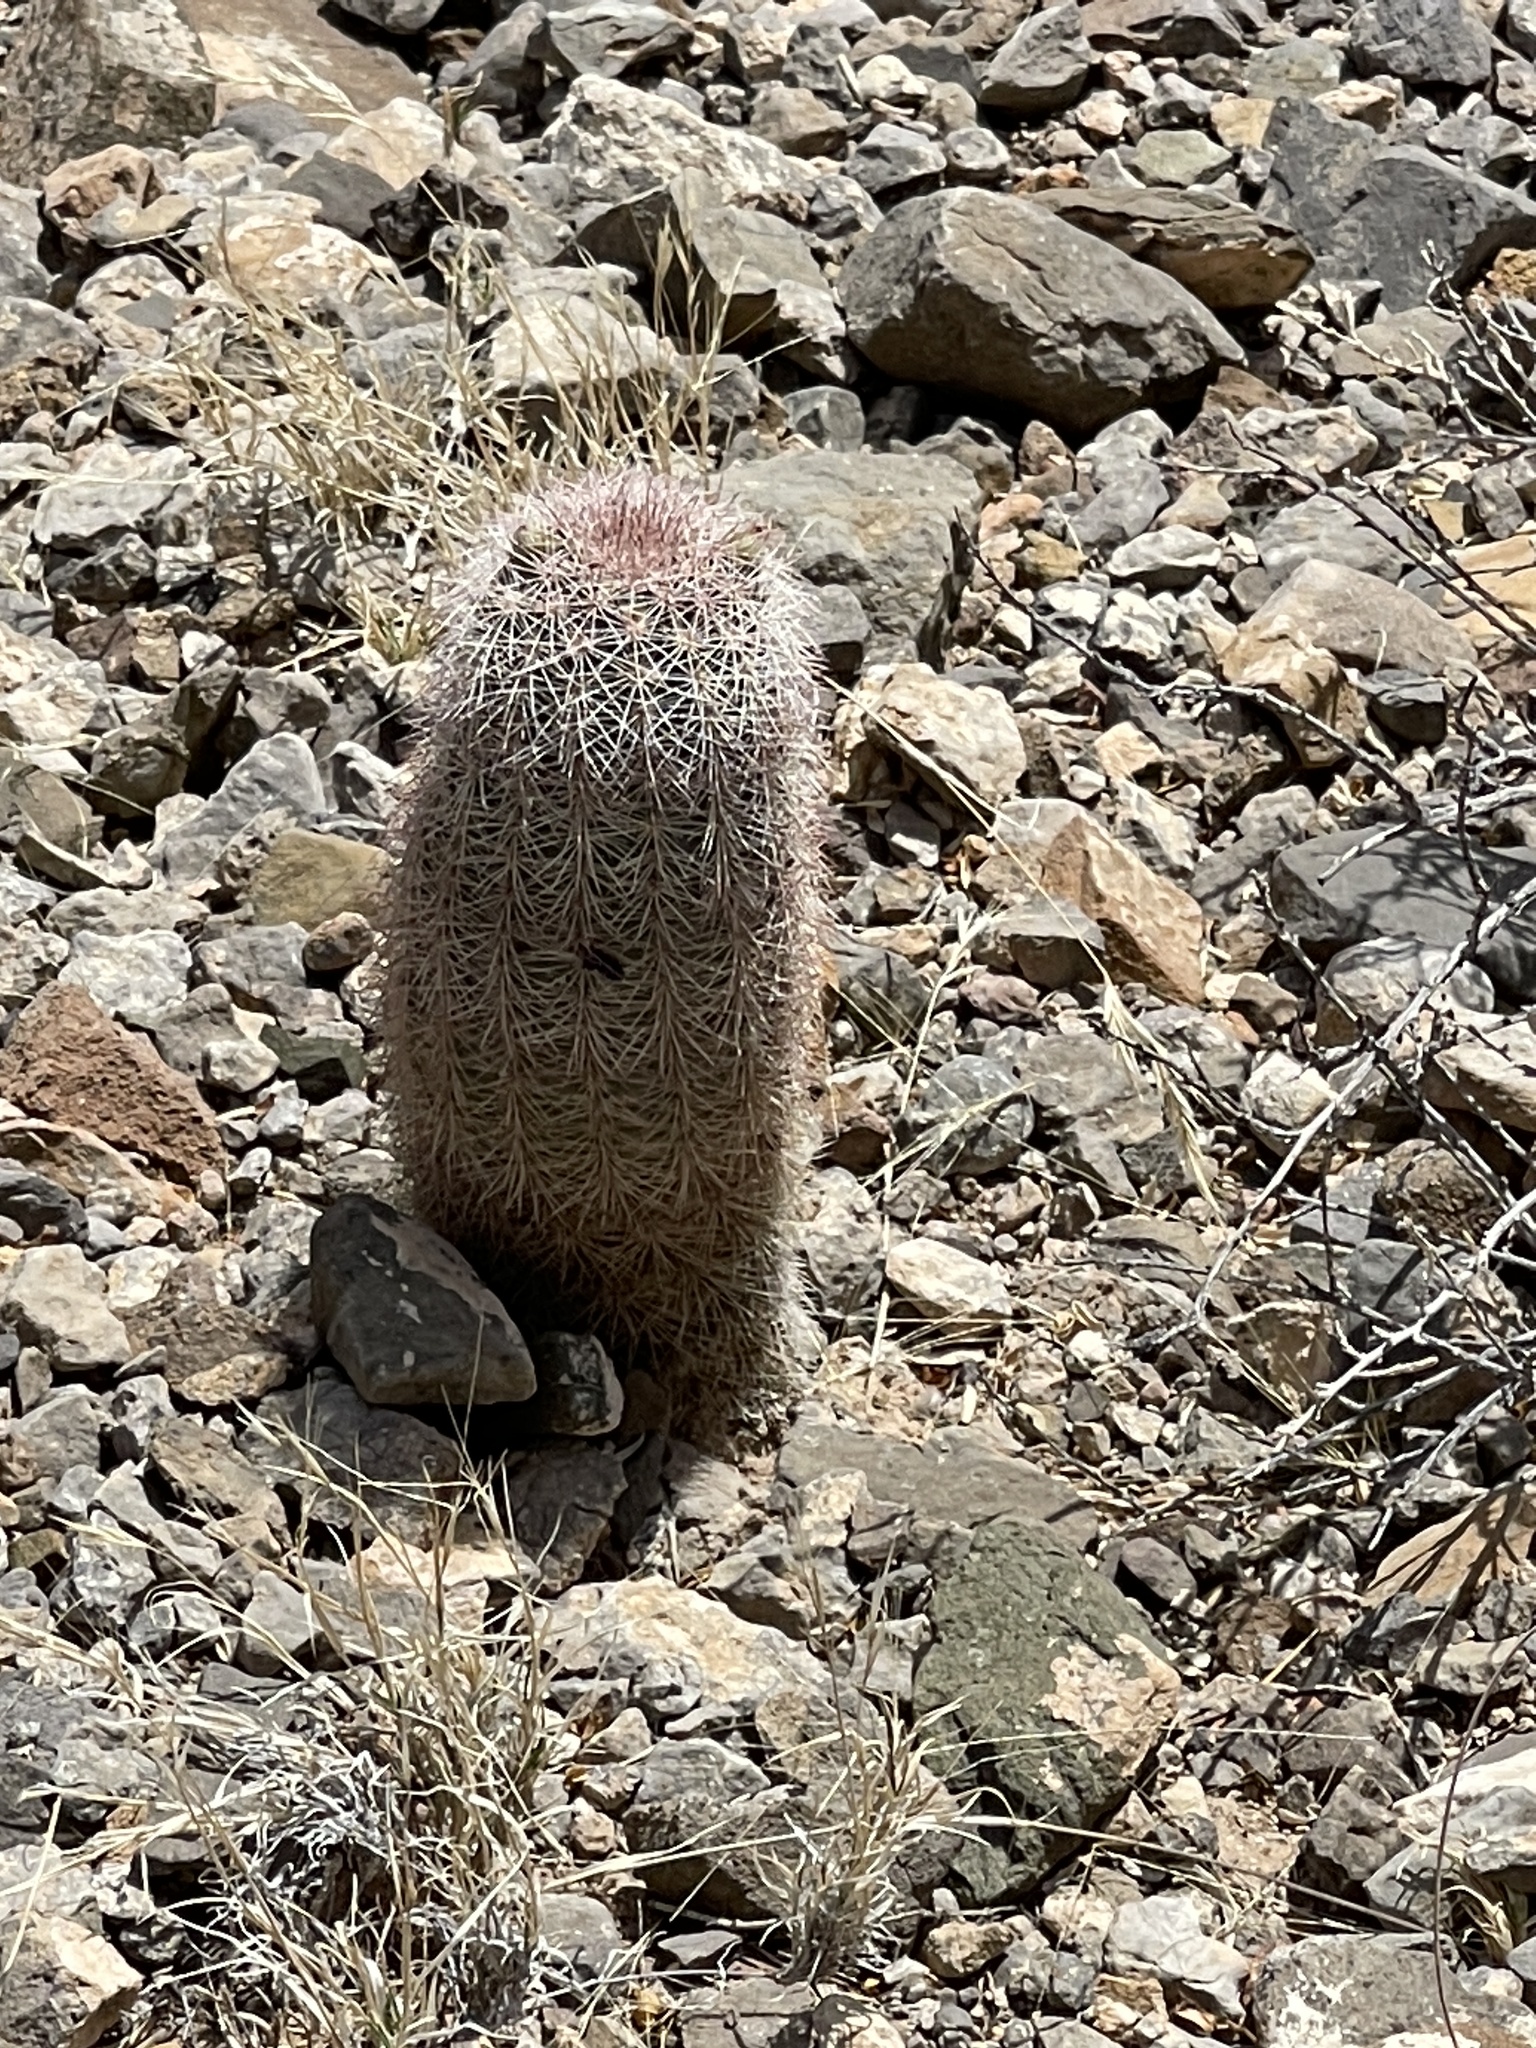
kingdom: Plantae
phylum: Tracheophyta
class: Magnoliopsida
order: Caryophyllales
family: Cactaceae
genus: Echinocereus
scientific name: Echinocereus dasyacanthus
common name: Spiny hedgehog cactus
